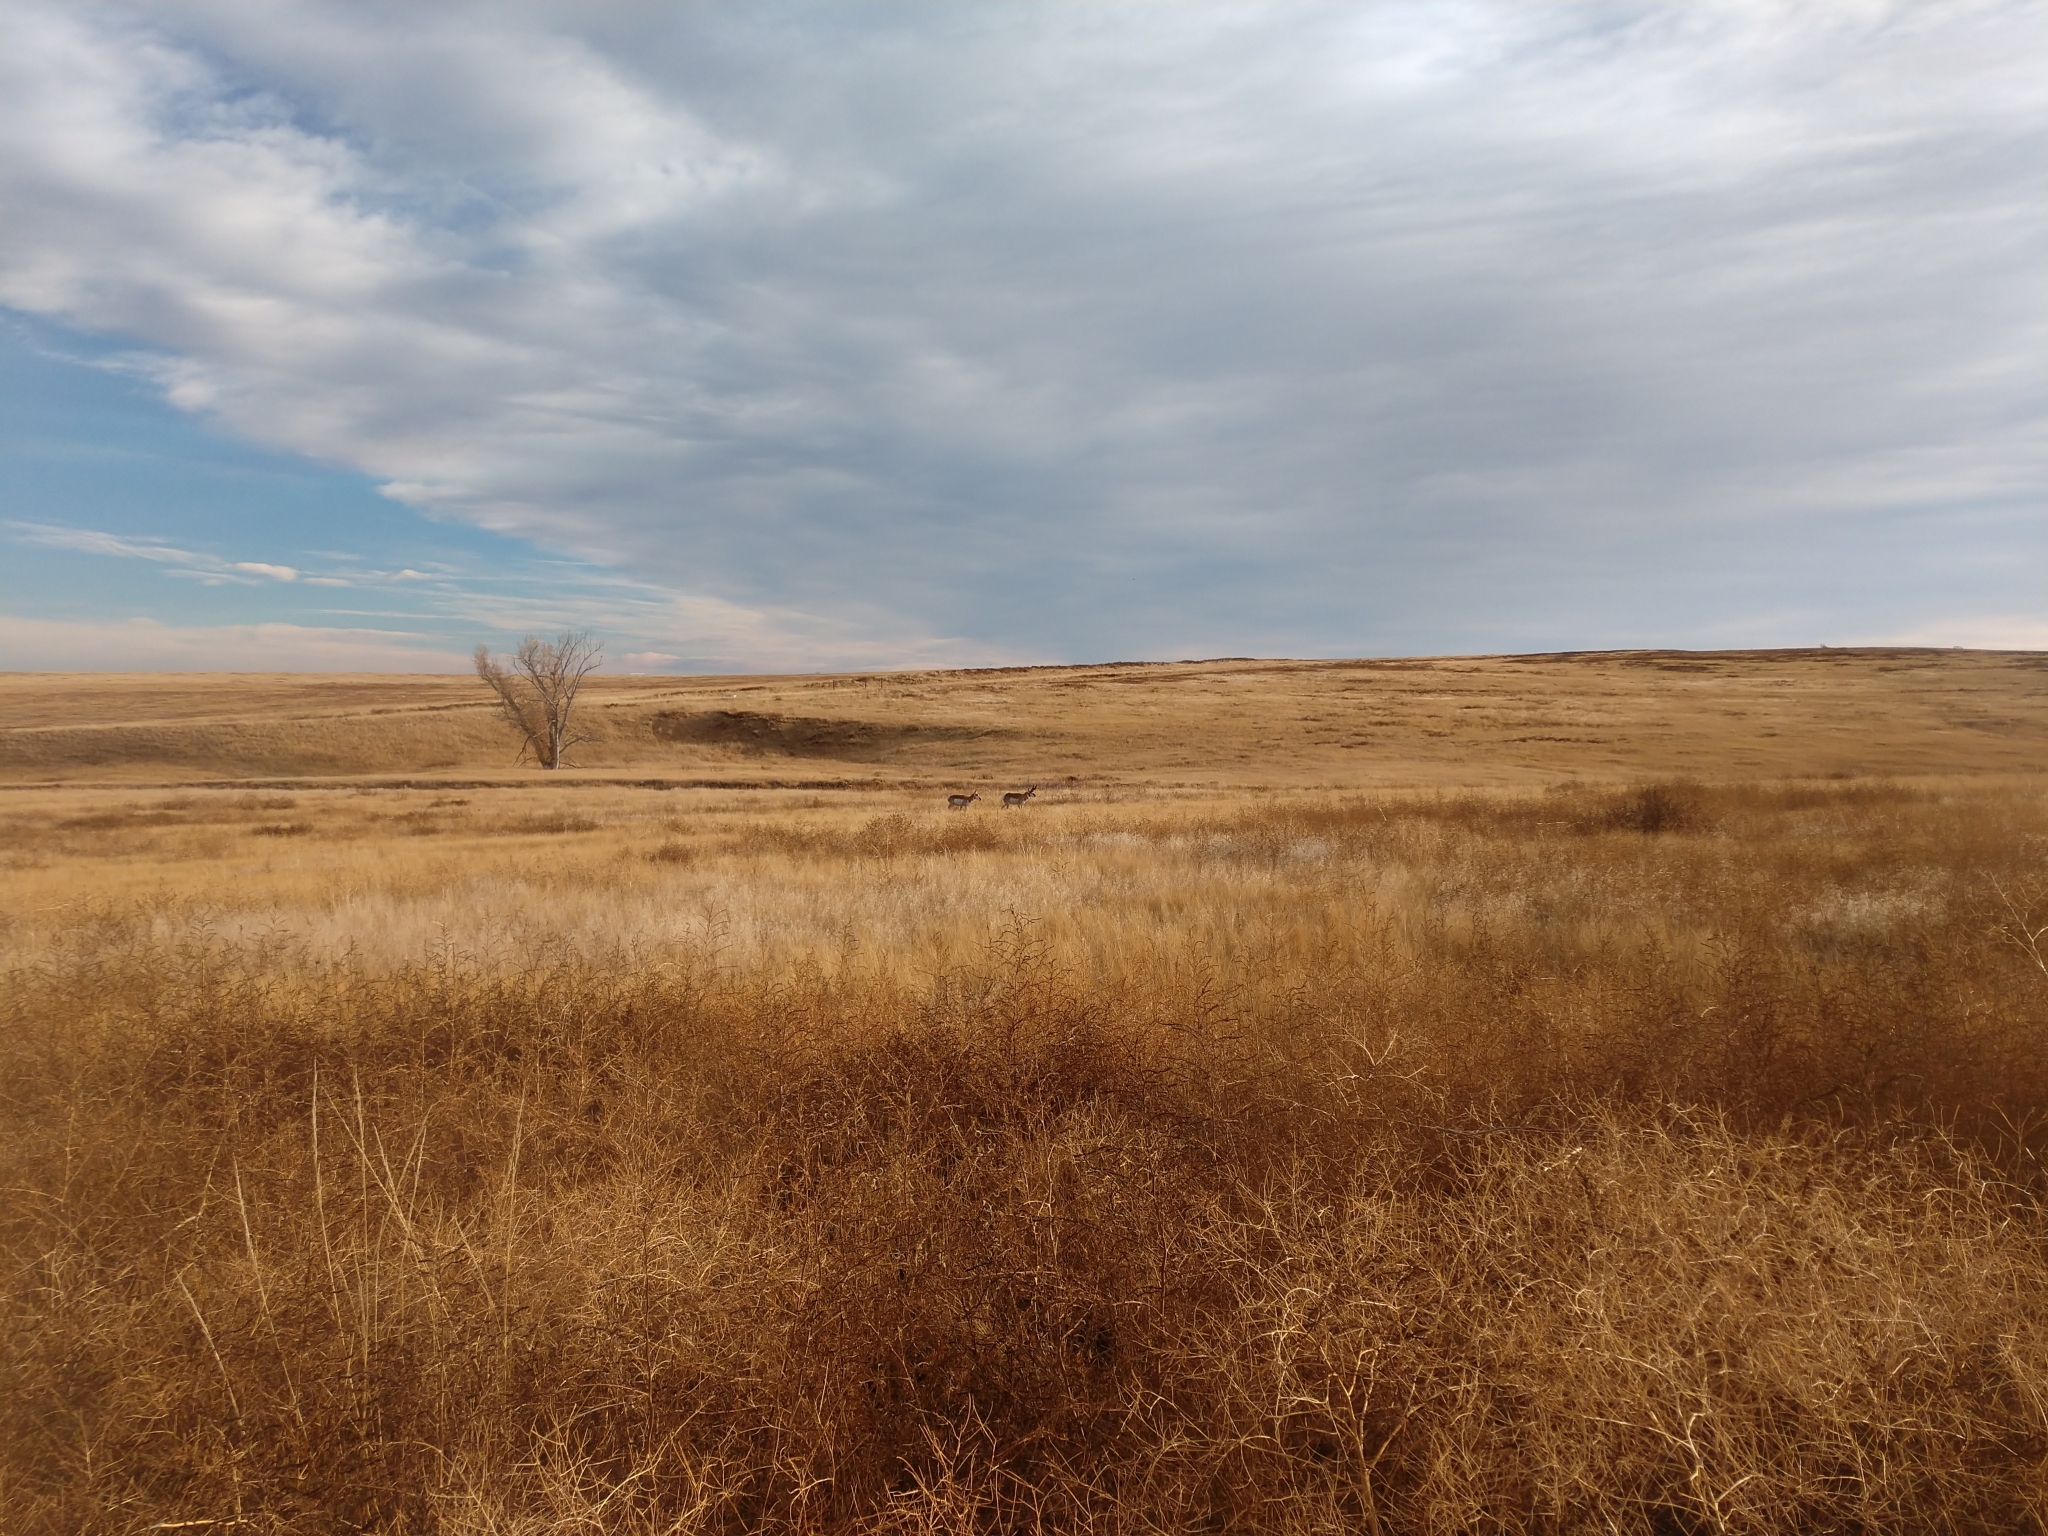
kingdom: Animalia
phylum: Chordata
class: Mammalia
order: Artiodactyla
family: Antilocapridae
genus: Antilocapra
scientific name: Antilocapra americana
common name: Pronghorn
